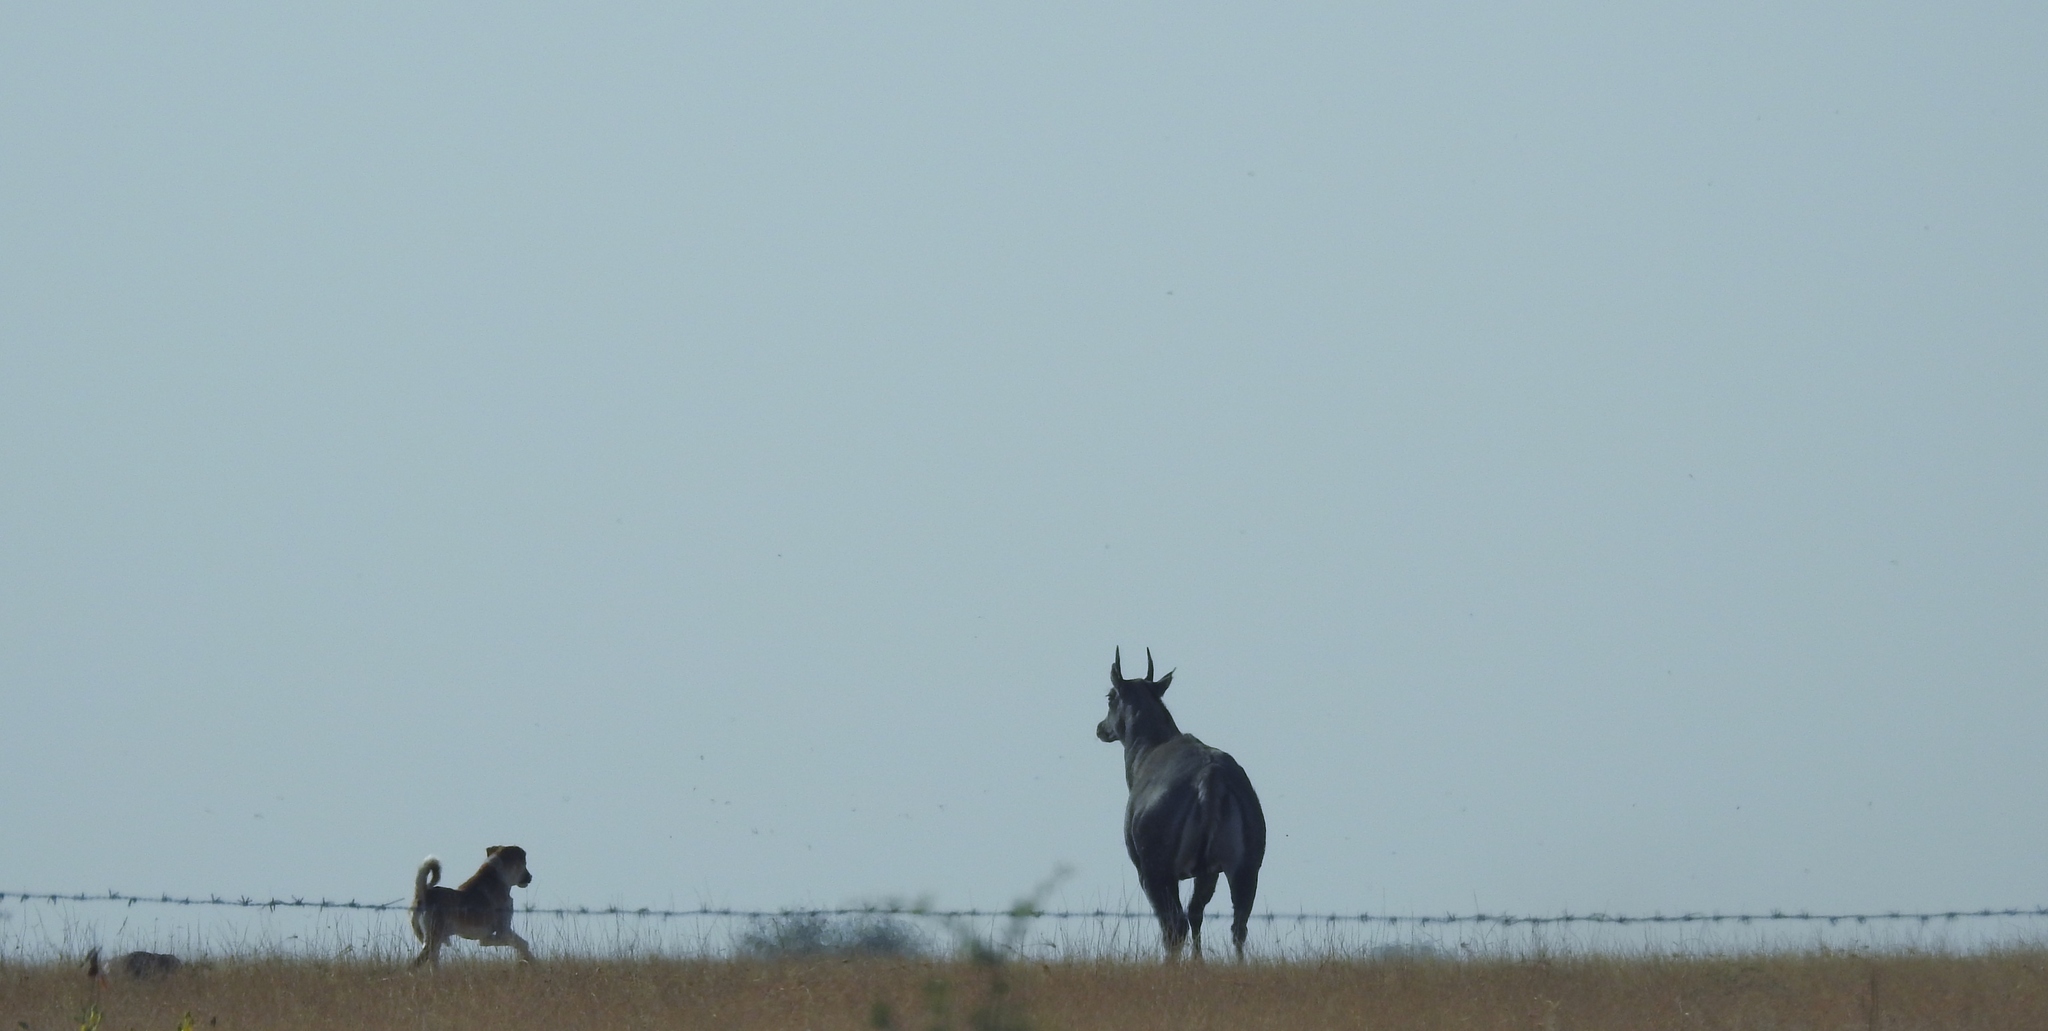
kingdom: Animalia
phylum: Chordata
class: Mammalia
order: Artiodactyla
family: Bovidae
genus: Boselaphus
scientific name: Boselaphus tragocamelus
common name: Nilgai
